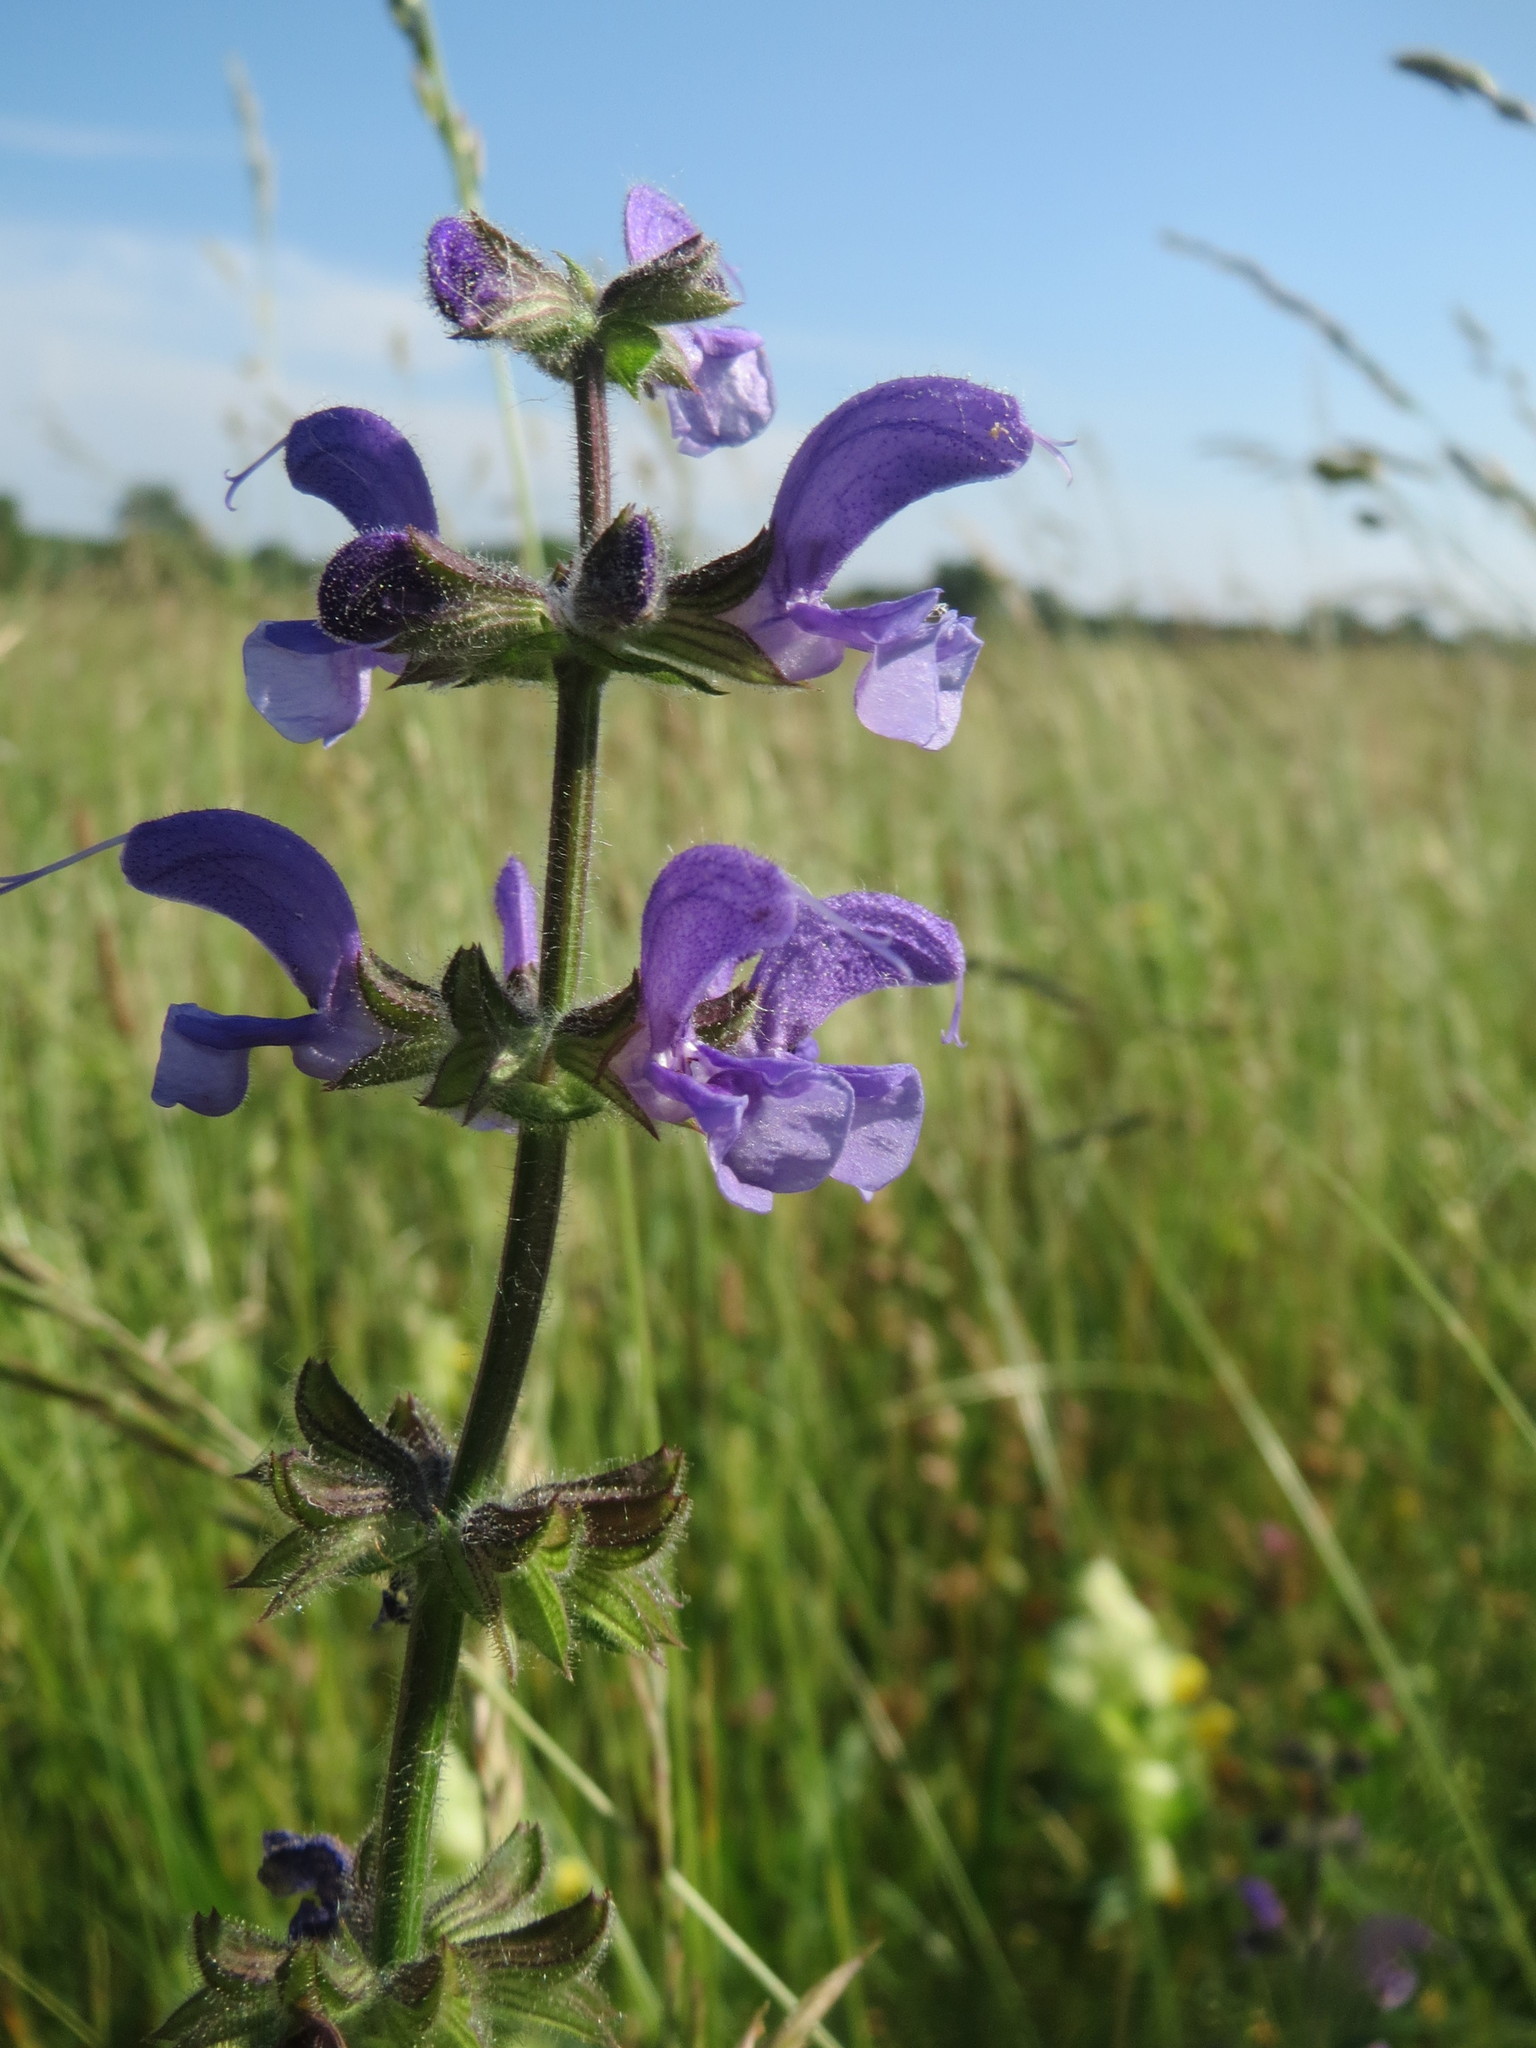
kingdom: Plantae
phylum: Tracheophyta
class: Magnoliopsida
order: Lamiales
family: Lamiaceae
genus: Salvia
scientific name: Salvia pratensis
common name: Meadow sage
